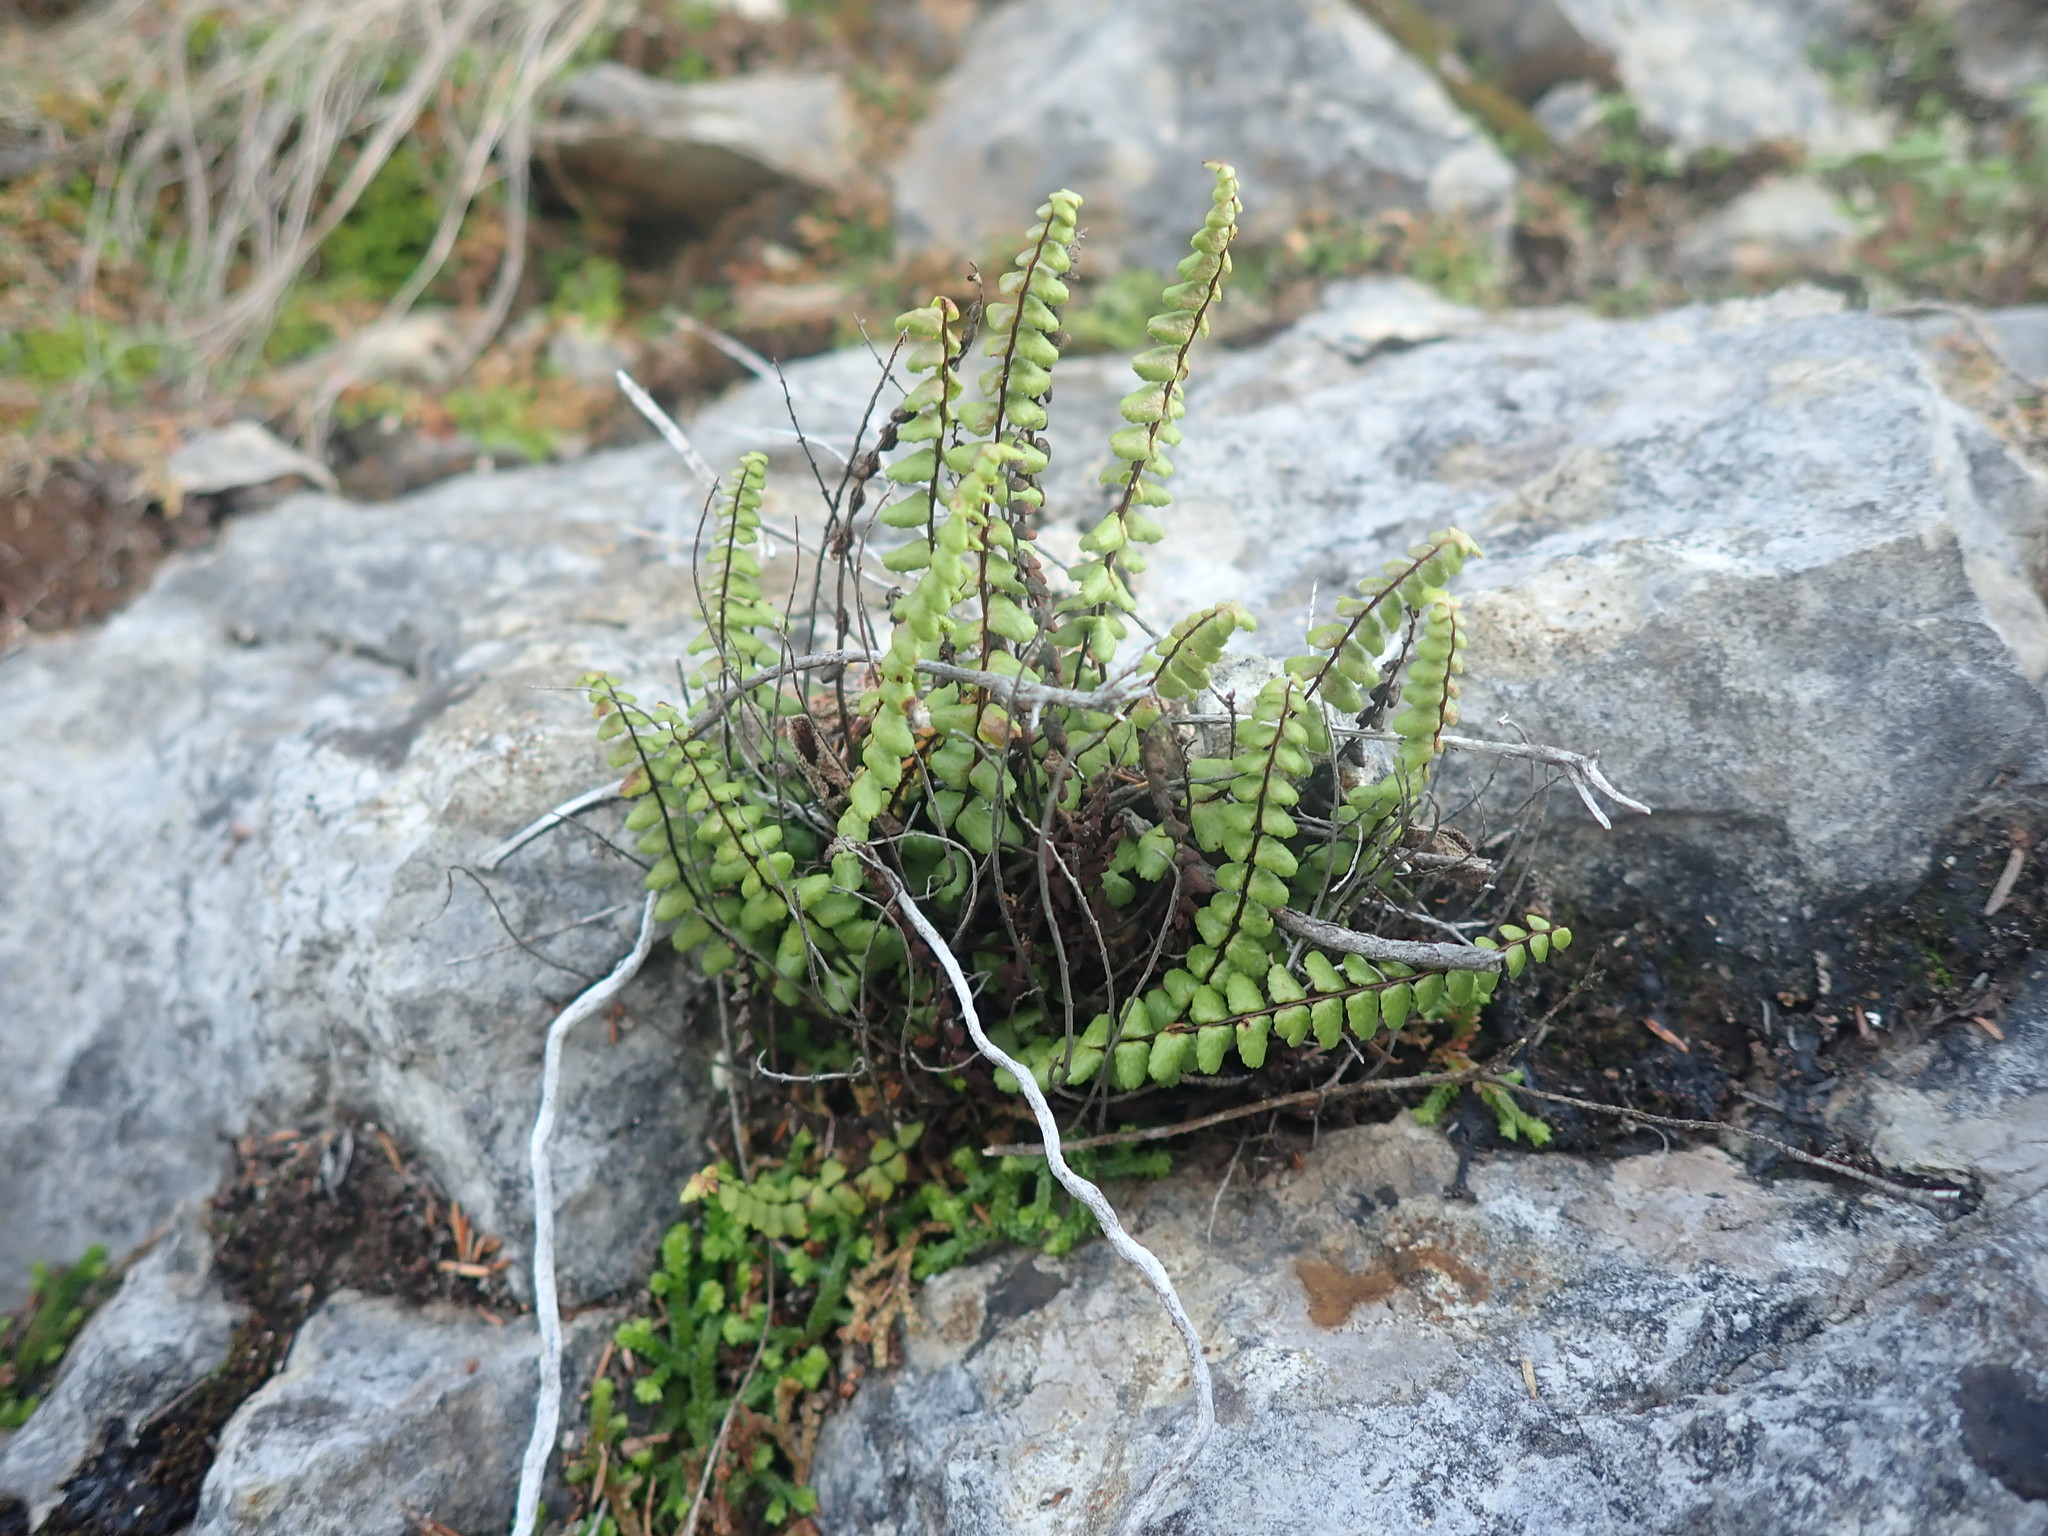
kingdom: Plantae
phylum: Tracheophyta
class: Polypodiopsida
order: Polypodiales
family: Aspleniaceae
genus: Asplenium
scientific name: Asplenium trichomanes
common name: Maidenhair spleenwort
